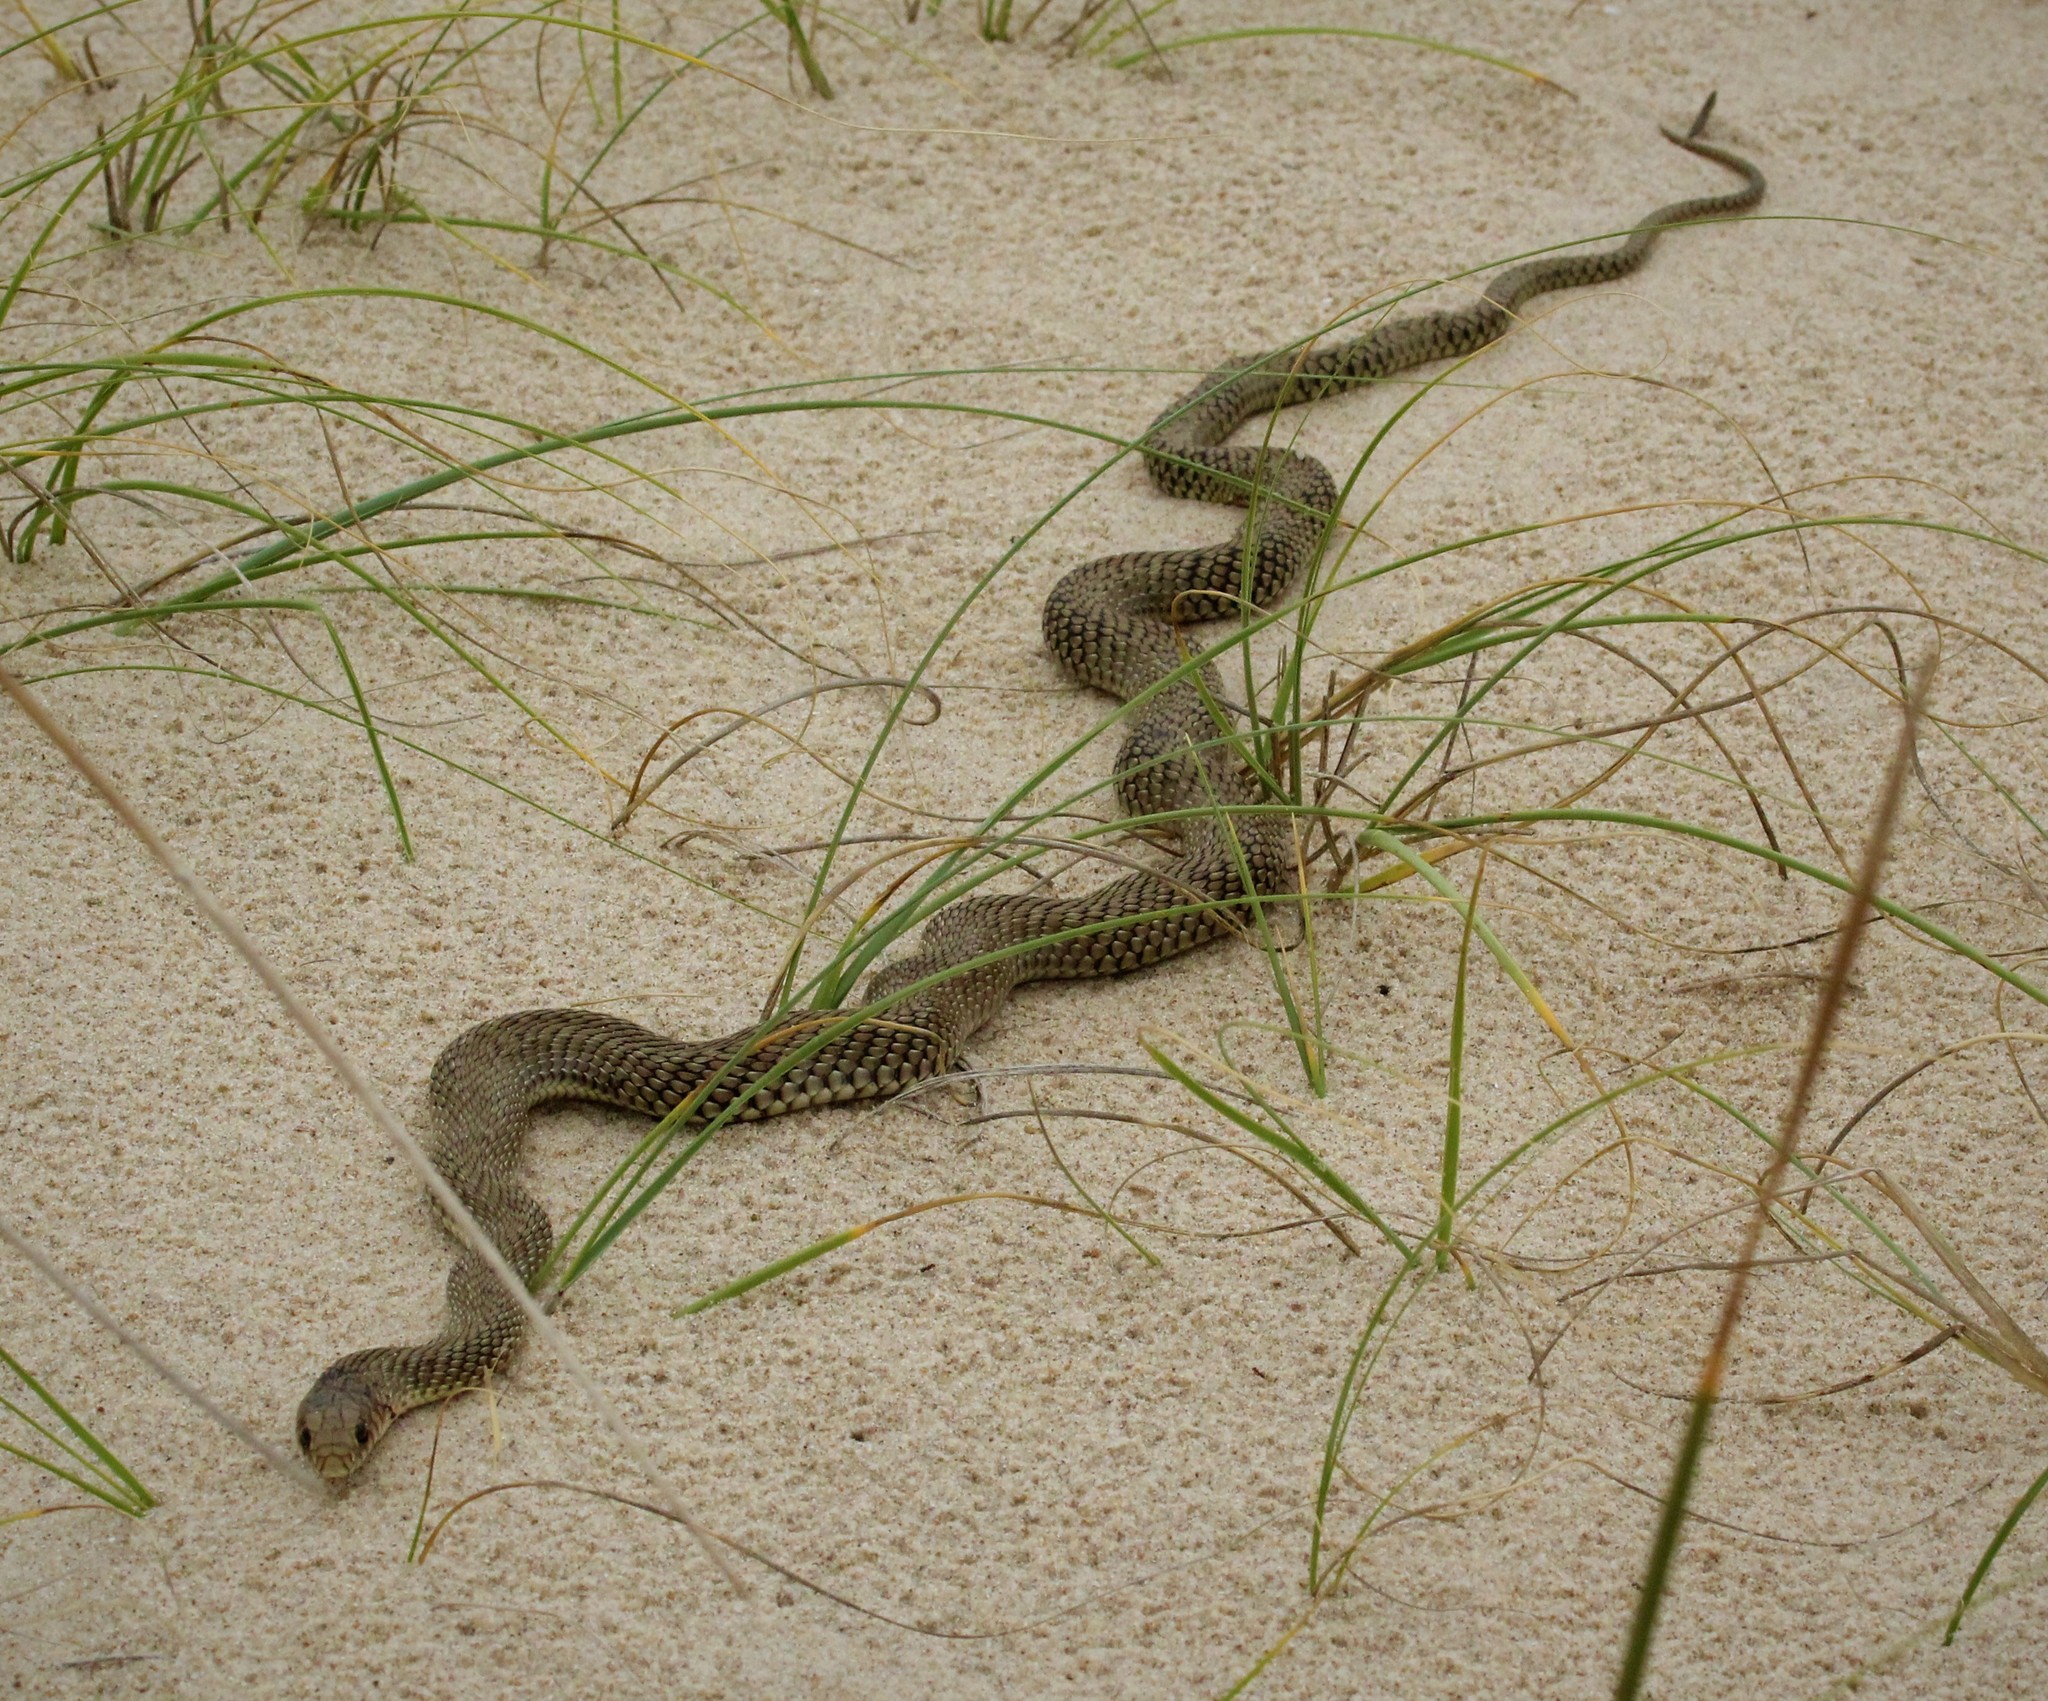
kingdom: Animalia
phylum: Chordata
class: Squamata
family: Colubridae
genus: Philodryas
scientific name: Philodryas patagoniensis
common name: Patagonia green racer
